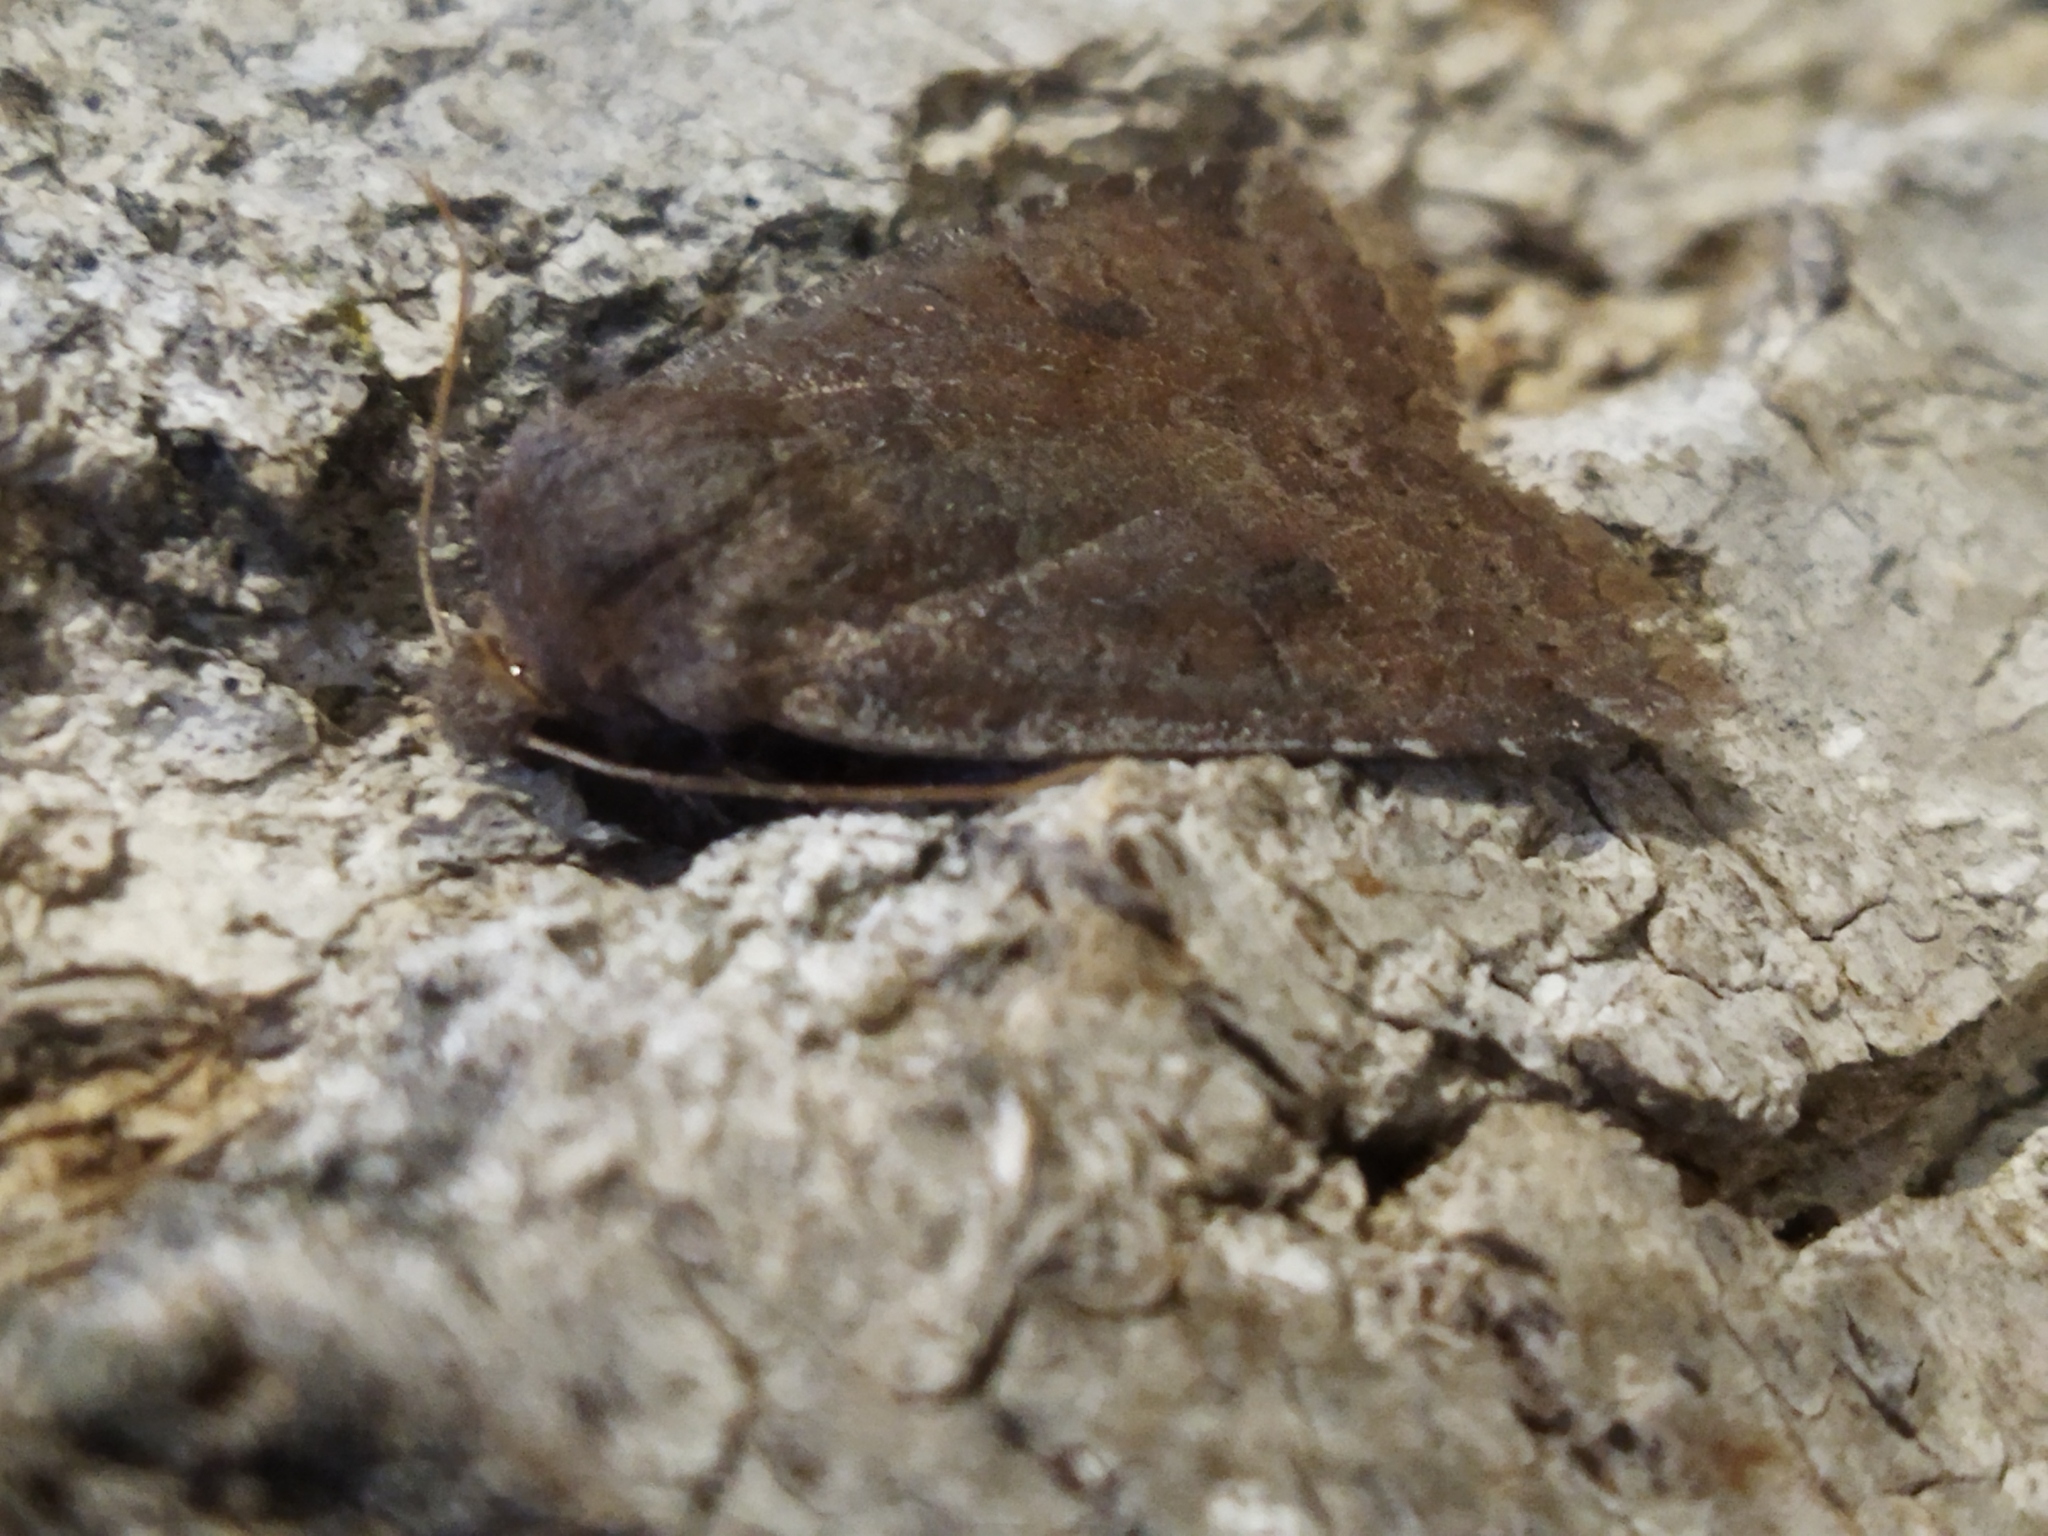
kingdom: Animalia
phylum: Arthropoda
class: Insecta
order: Lepidoptera
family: Noctuidae
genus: Conistra
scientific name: Conistra vaccinii
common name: Chestnut
